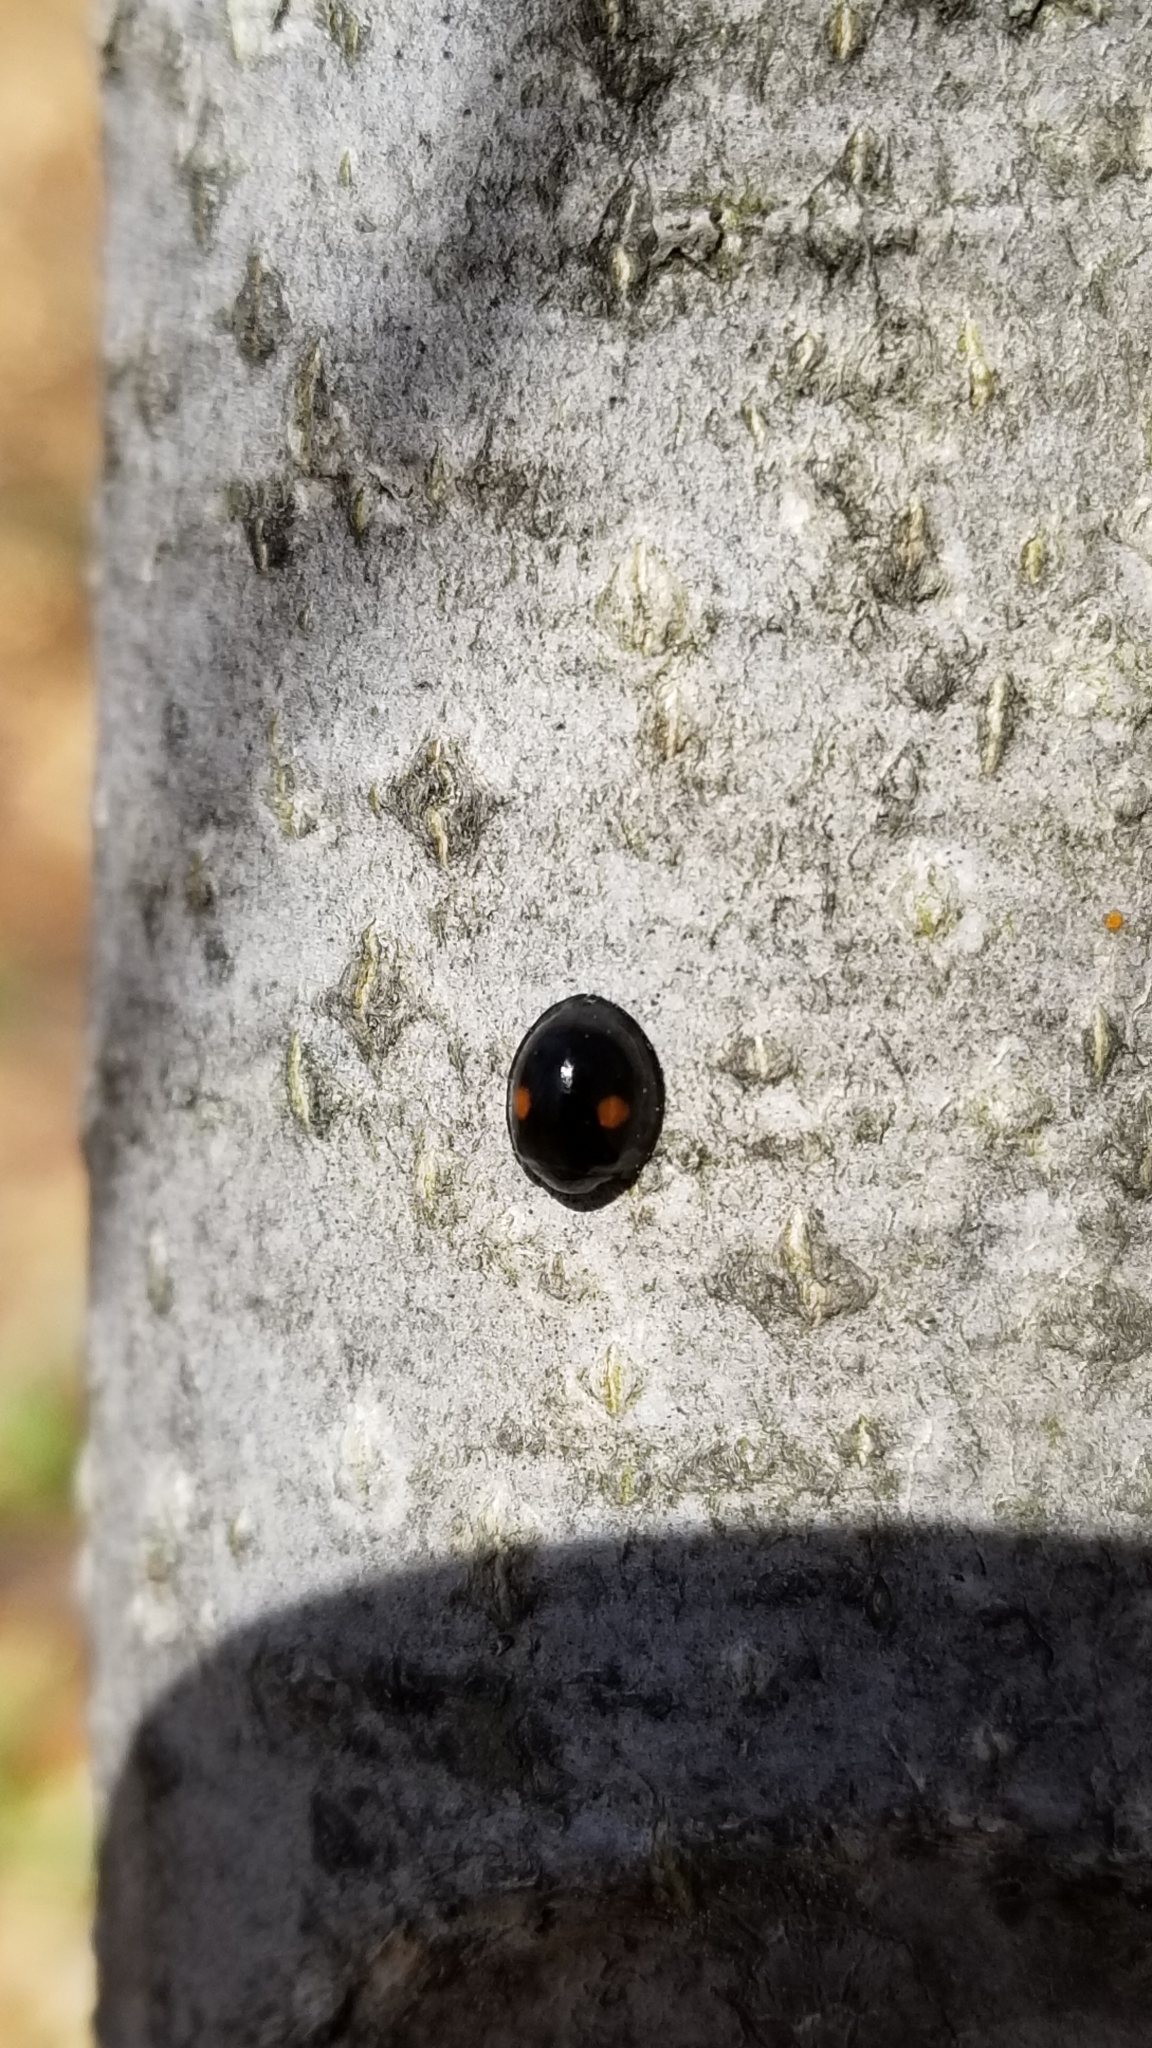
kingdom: Animalia
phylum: Arthropoda
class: Insecta
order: Coleoptera
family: Coccinellidae
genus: Chilocorus
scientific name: Chilocorus stigma
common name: Twicestabbed lady beetle
